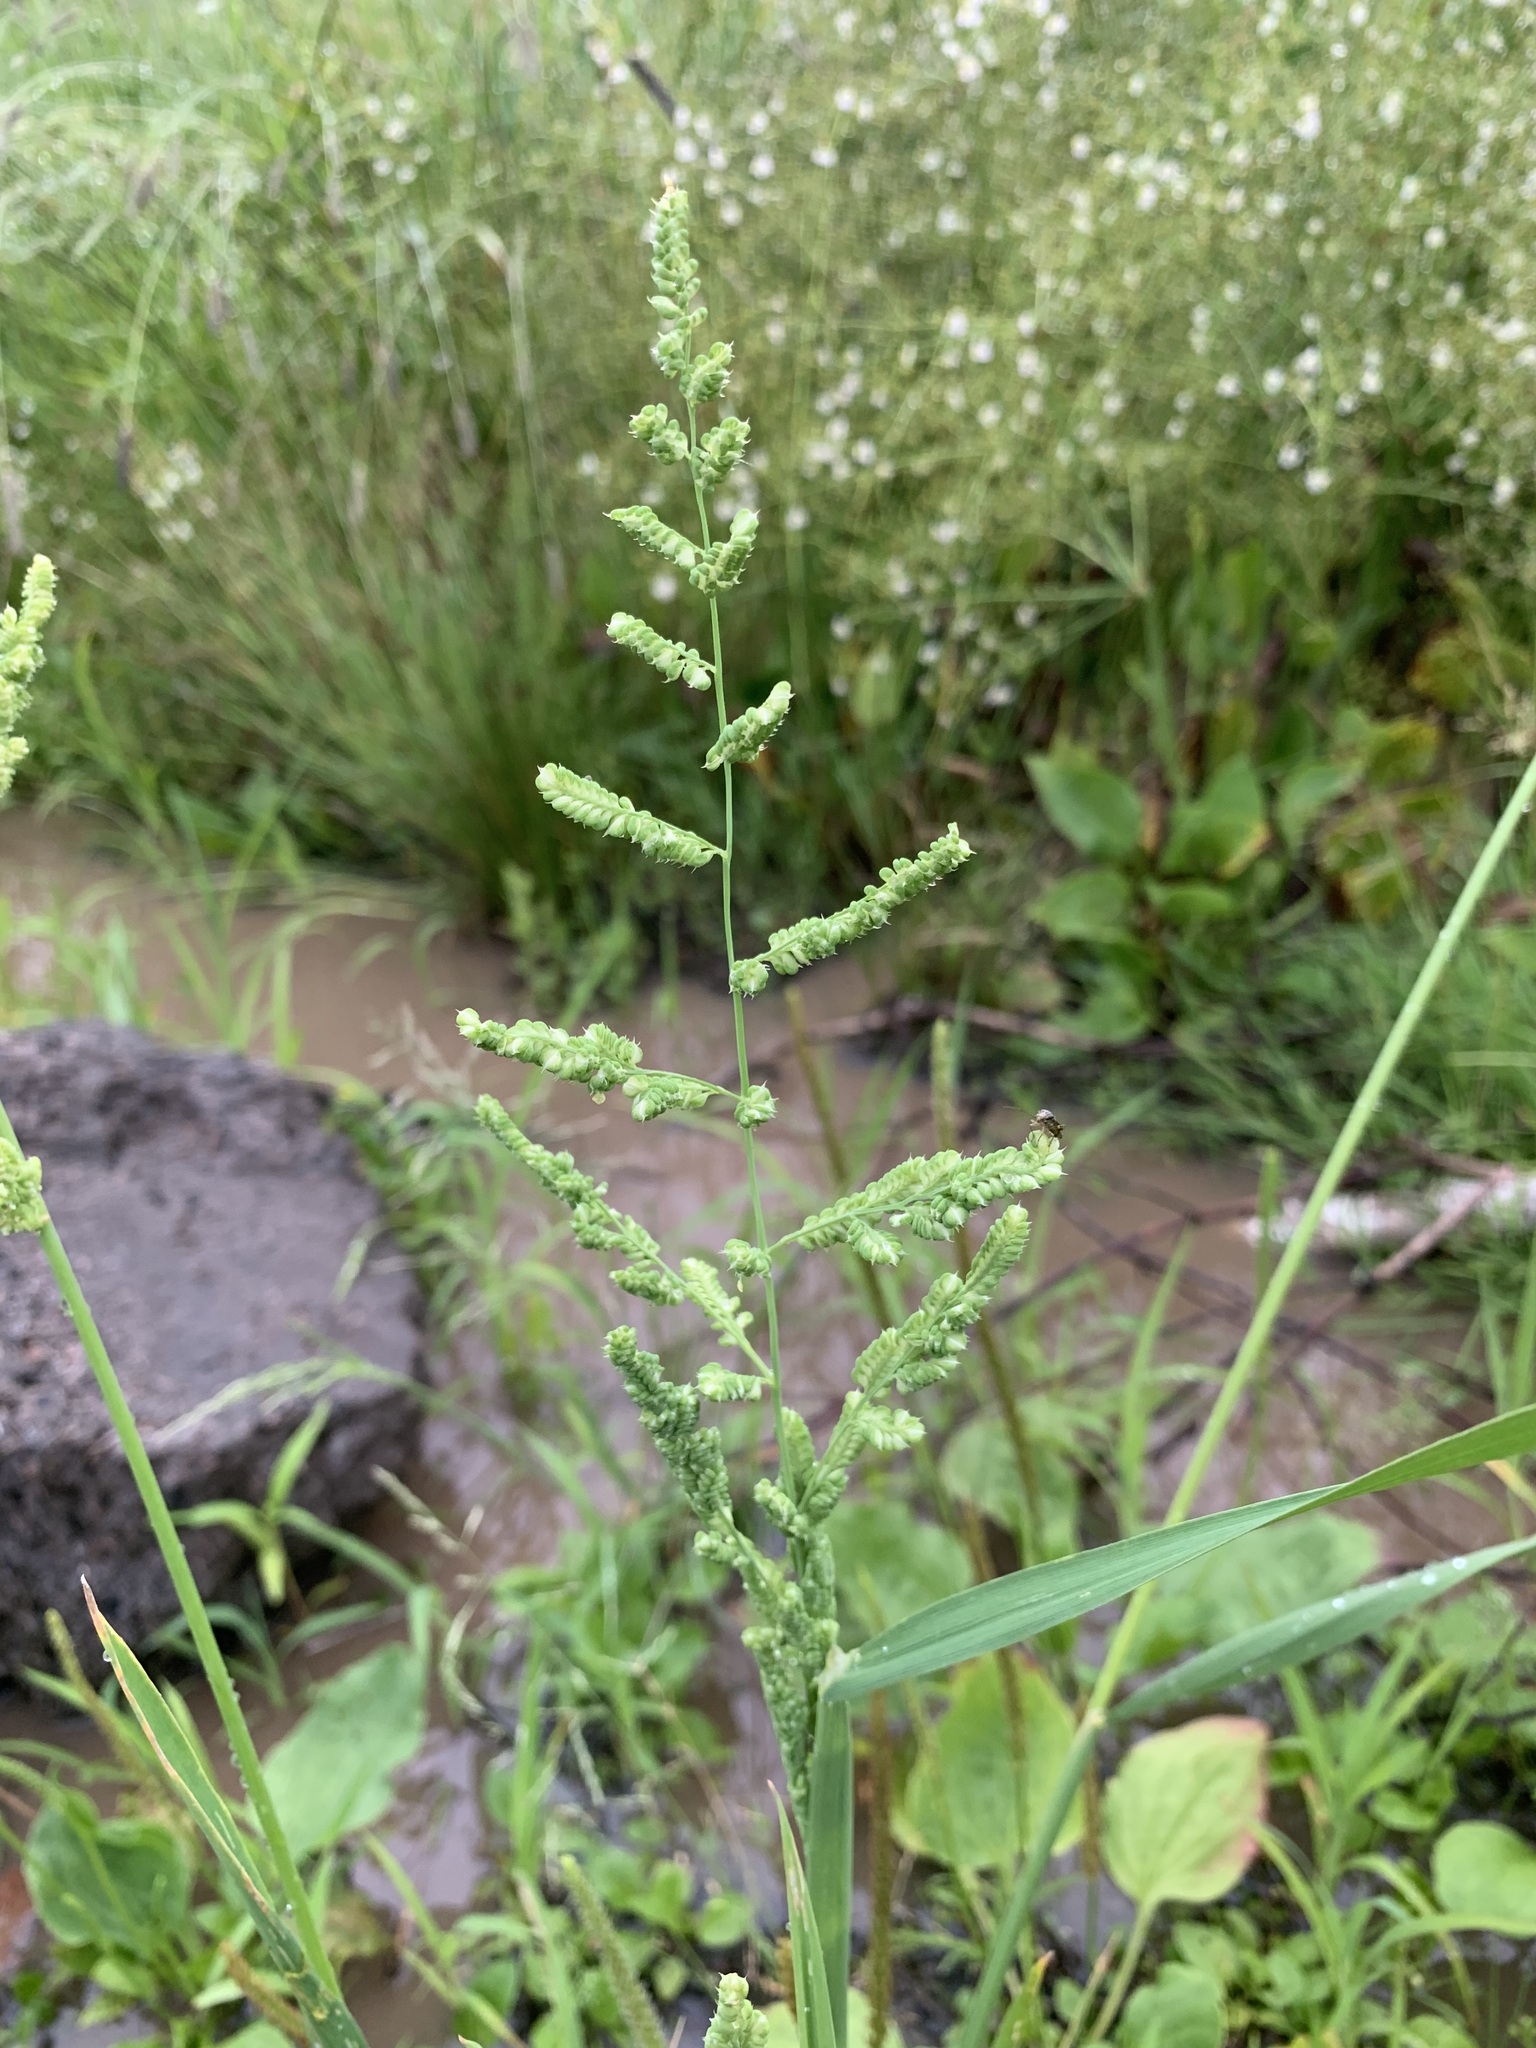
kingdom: Plantae
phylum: Tracheophyta
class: Liliopsida
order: Poales
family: Poaceae
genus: Beckmannia
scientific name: Beckmannia syzigachne
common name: American slough-grass
